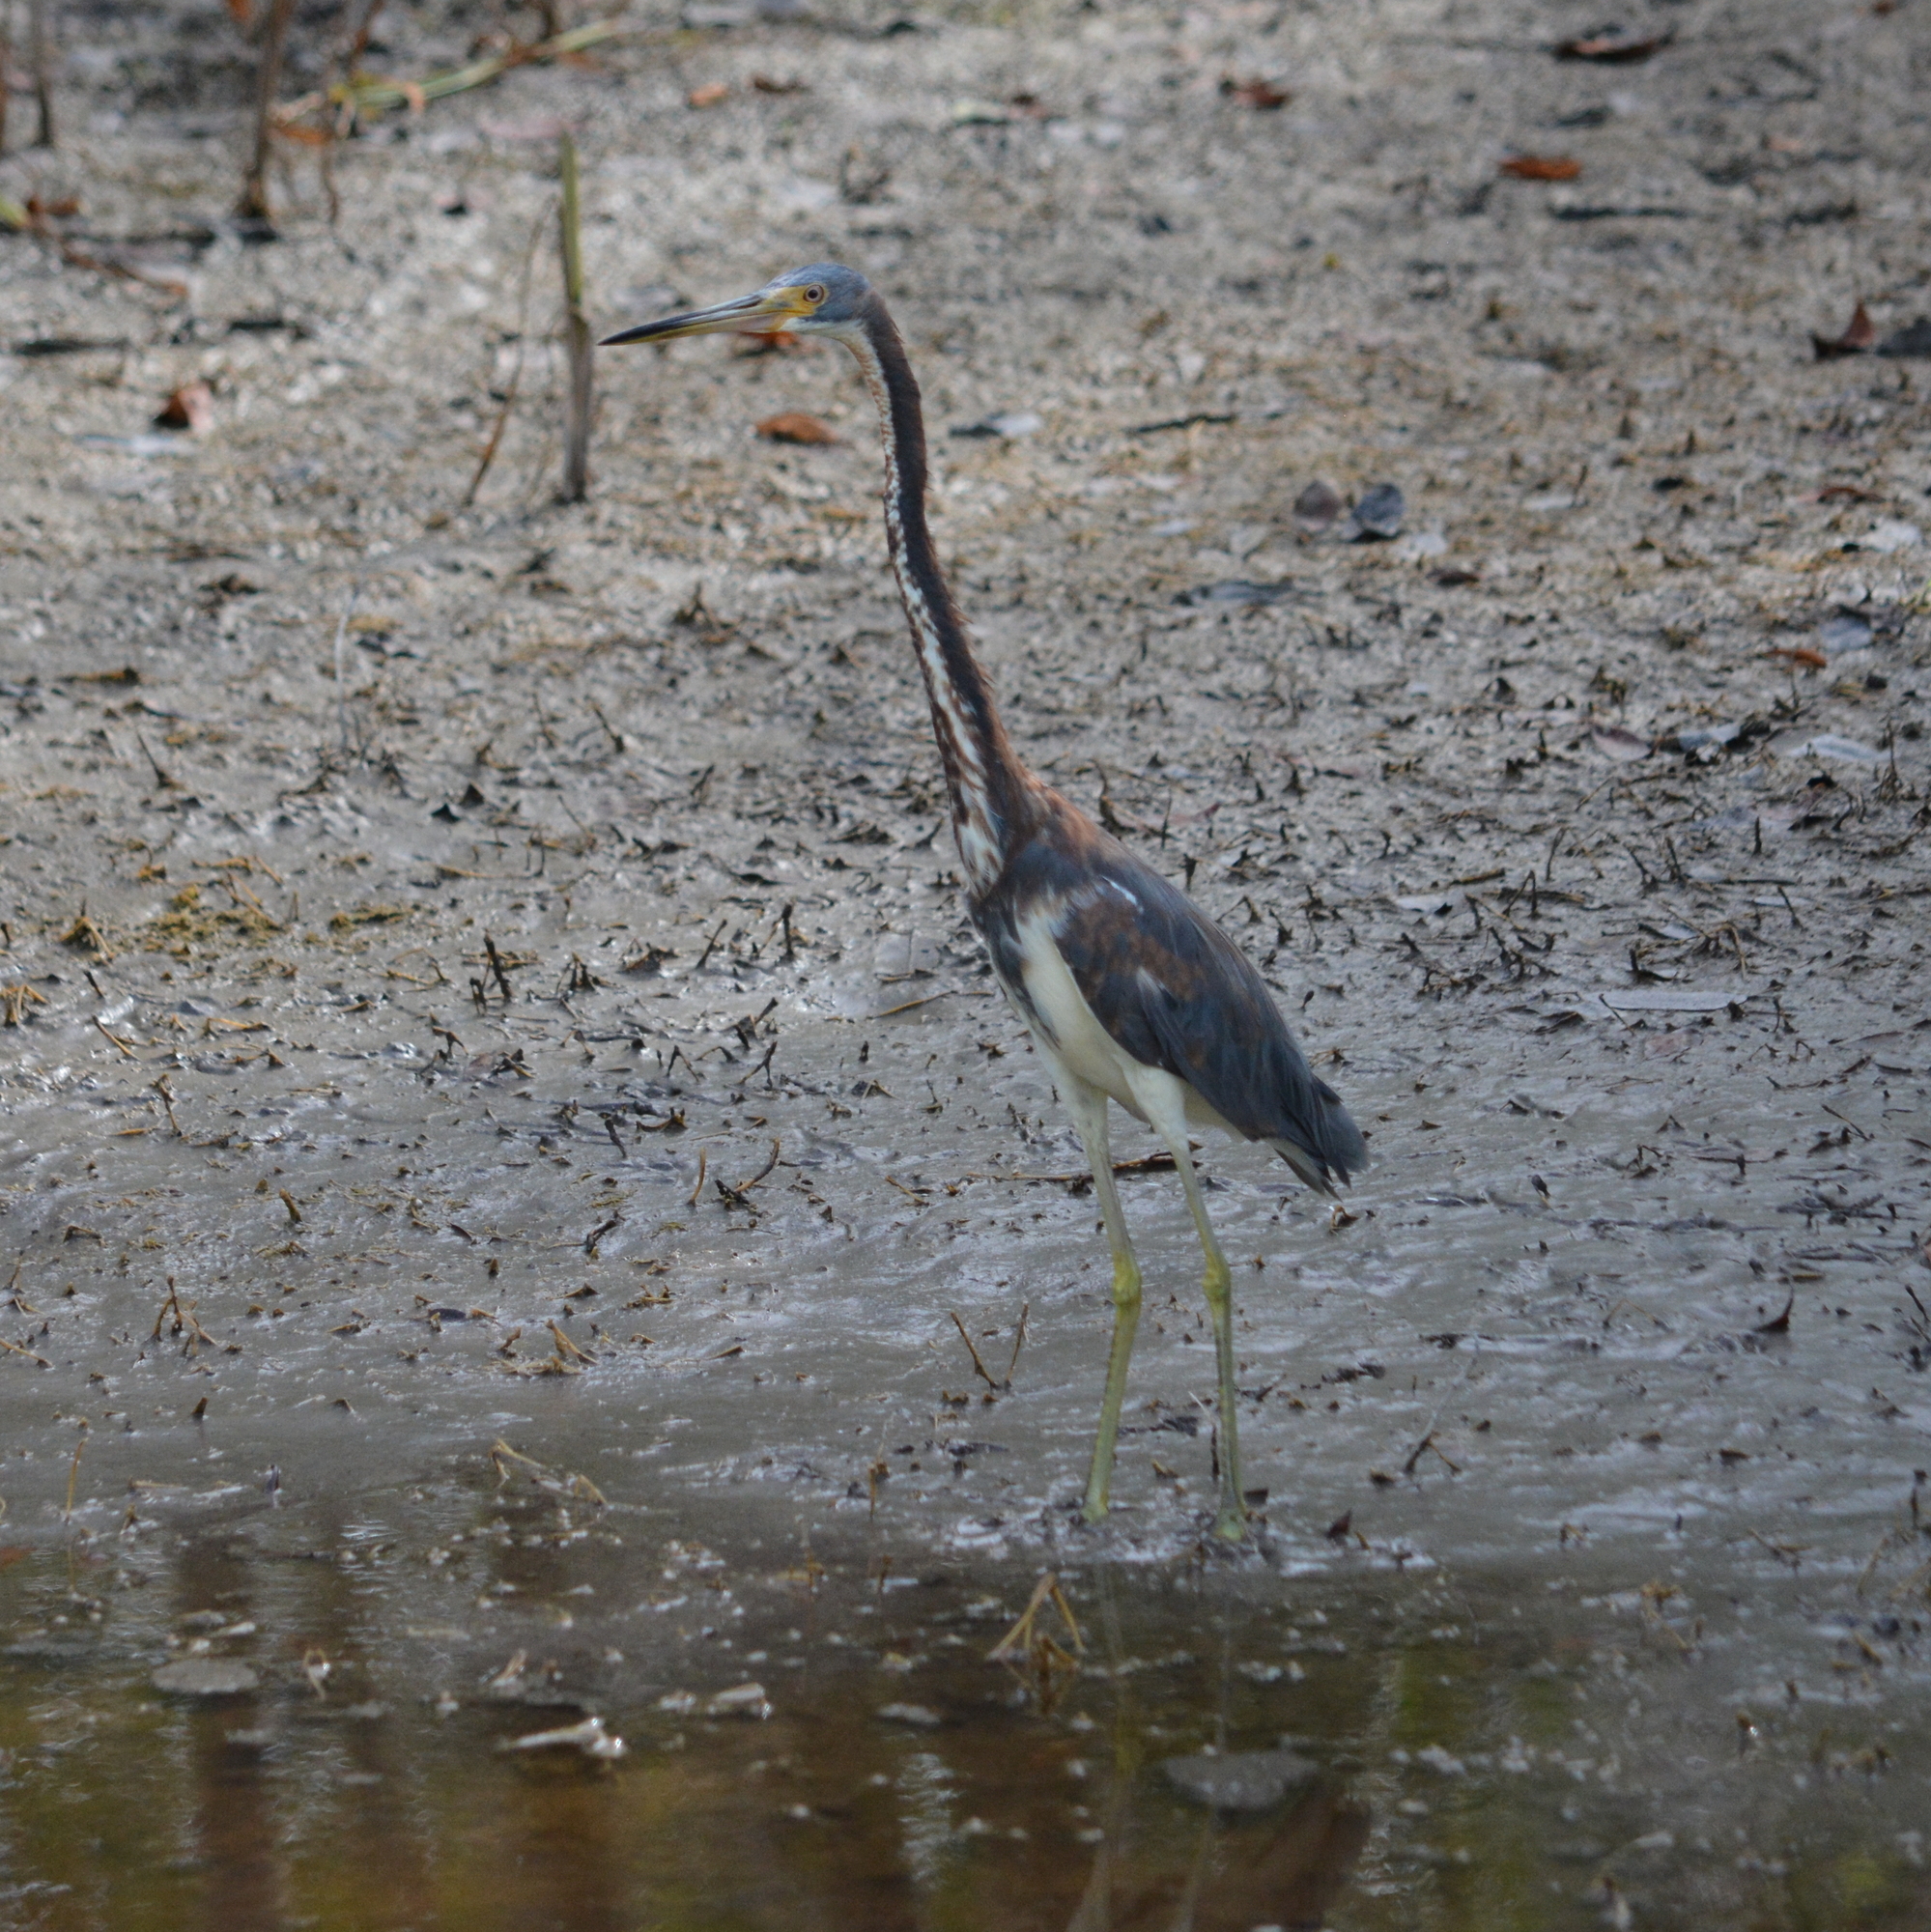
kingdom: Animalia
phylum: Chordata
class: Aves
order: Pelecaniformes
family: Ardeidae
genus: Egretta
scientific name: Egretta tricolor
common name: Tricolored heron
